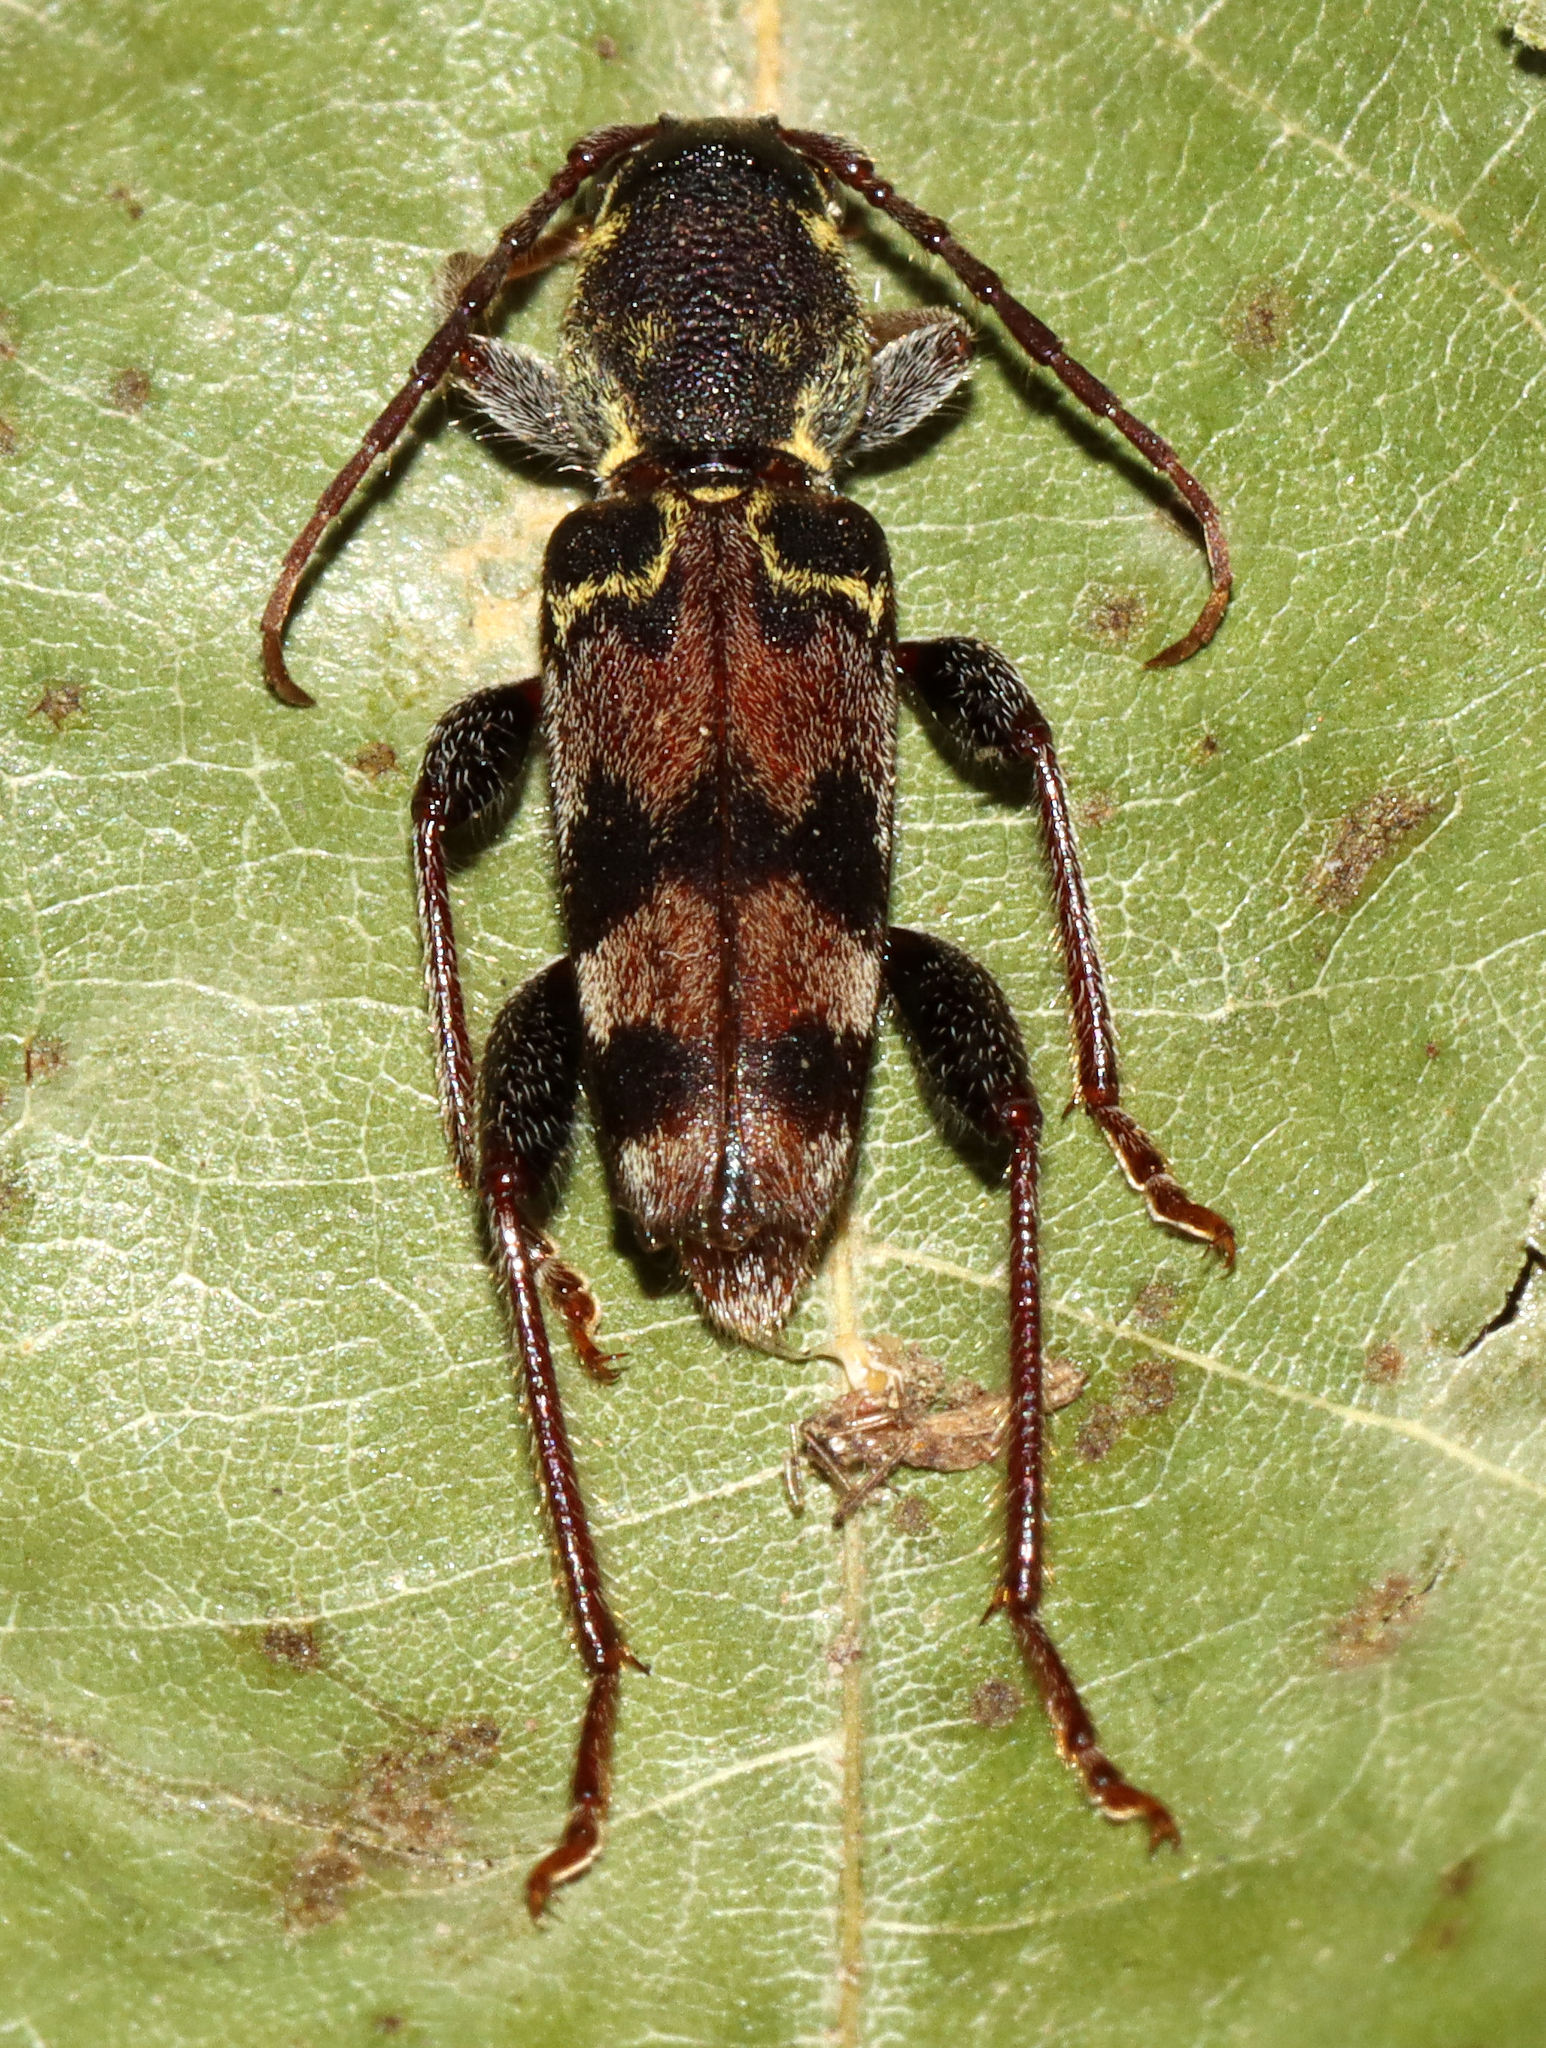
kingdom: Animalia
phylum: Arthropoda
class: Insecta
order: Coleoptera
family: Cerambycidae
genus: Xylotrechus
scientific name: Xylotrechus colonus
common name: Long-horned beetle
